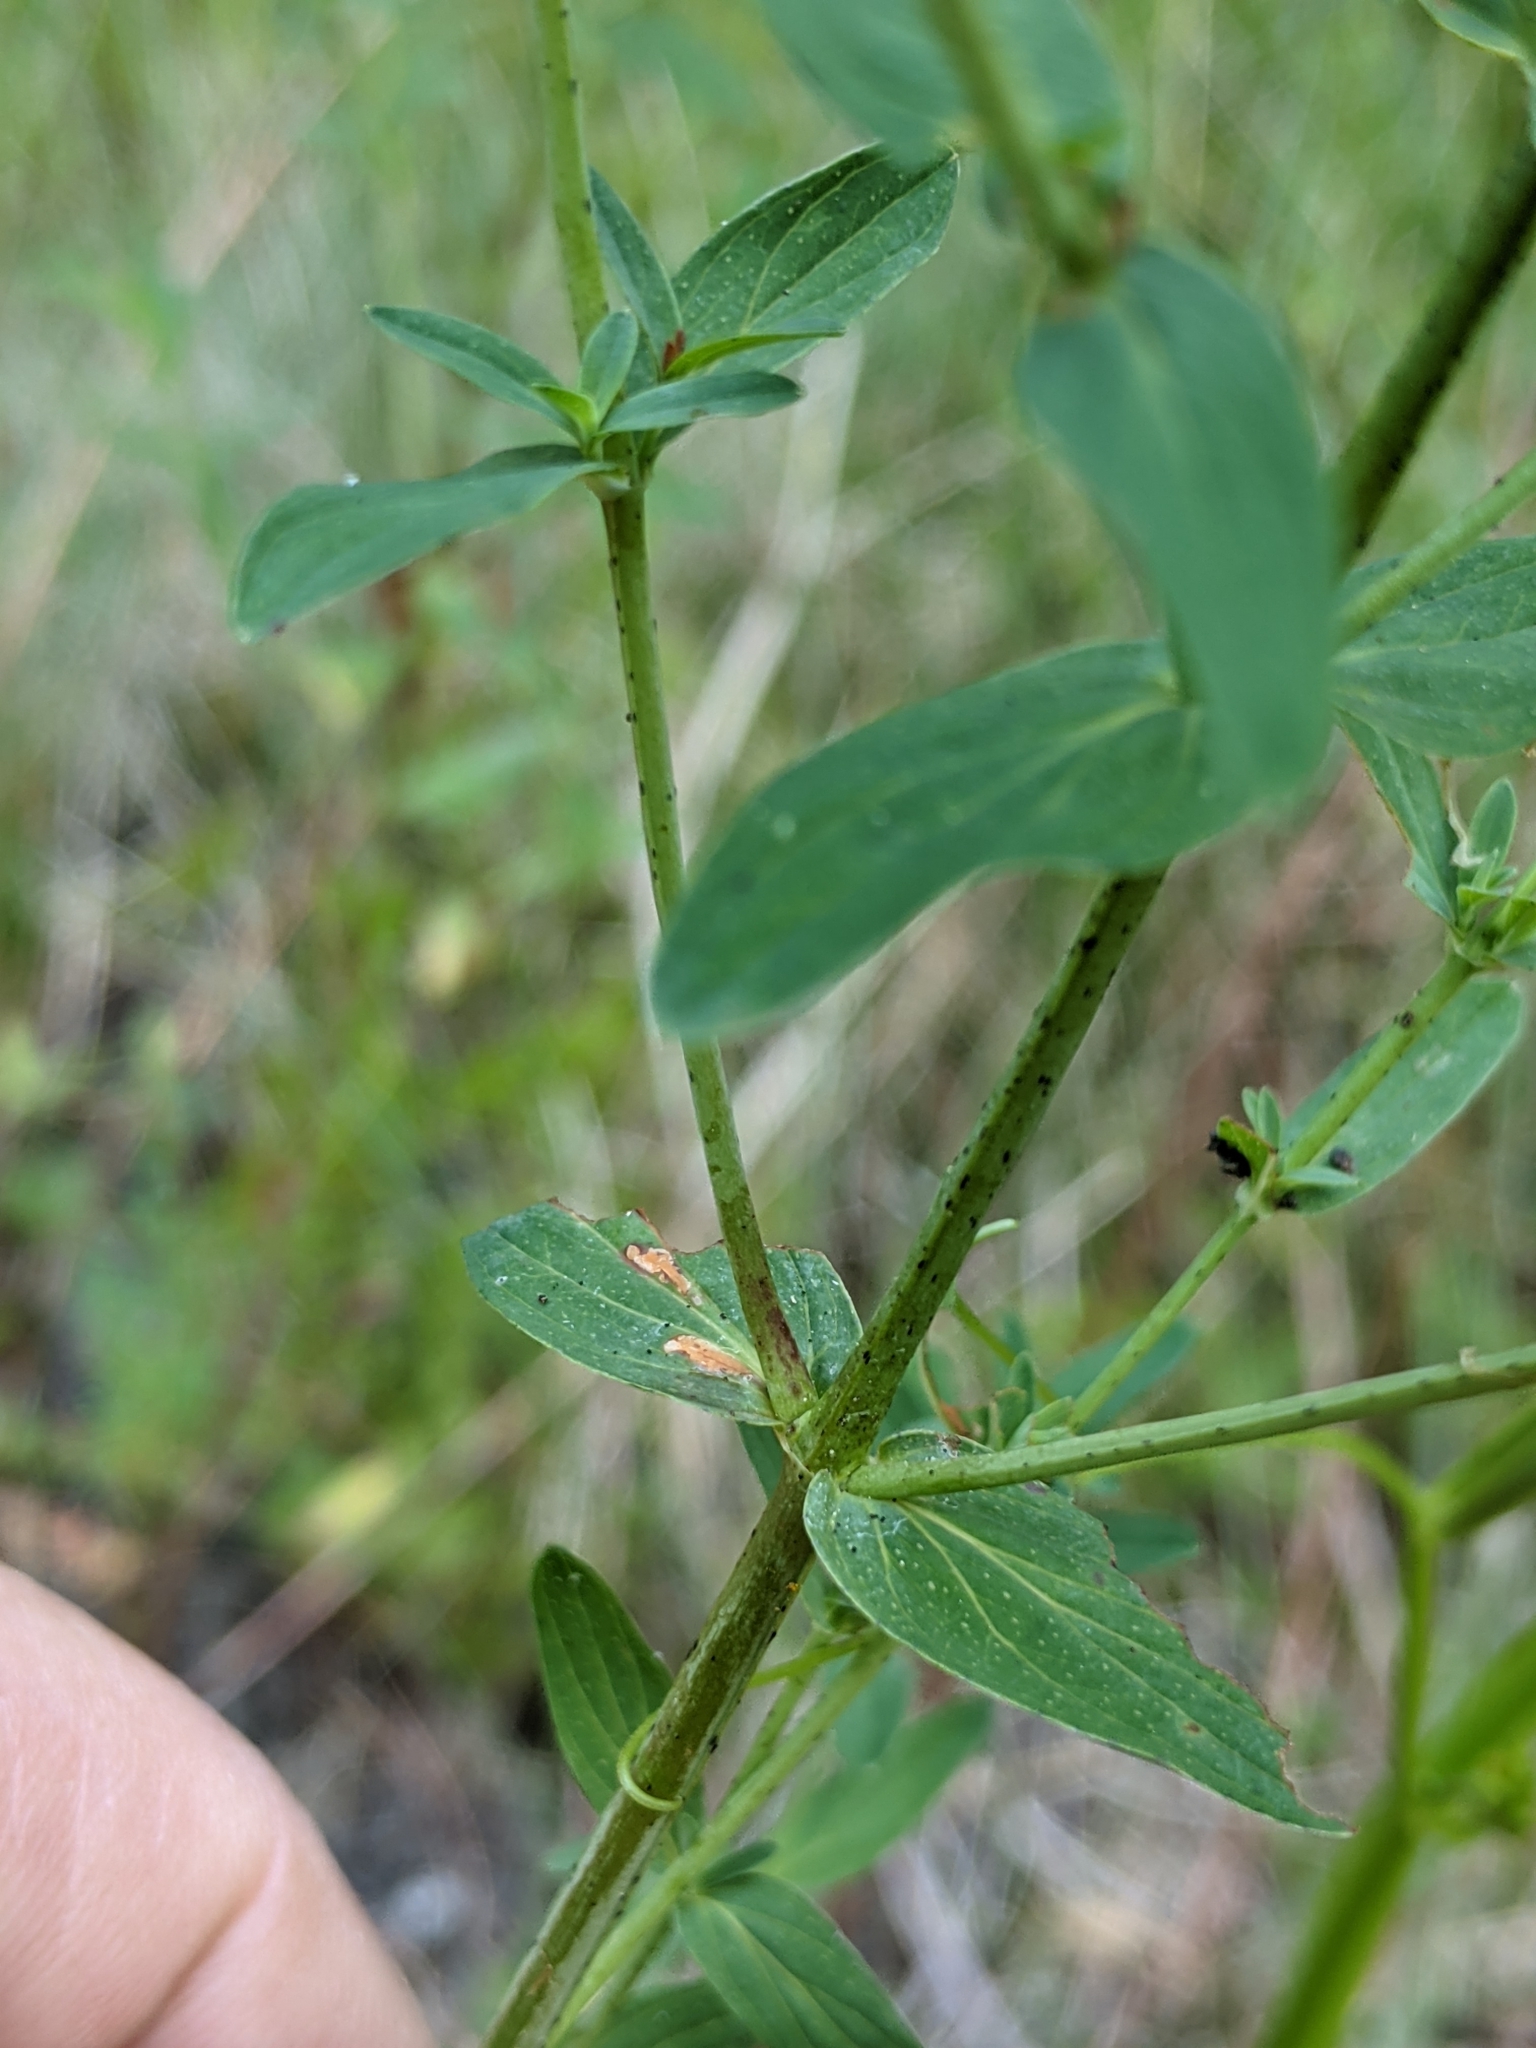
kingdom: Plantae
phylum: Tracheophyta
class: Magnoliopsida
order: Malpighiales
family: Hypericaceae
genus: Hypericum
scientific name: Hypericum perforatum
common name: Common st. johnswort
